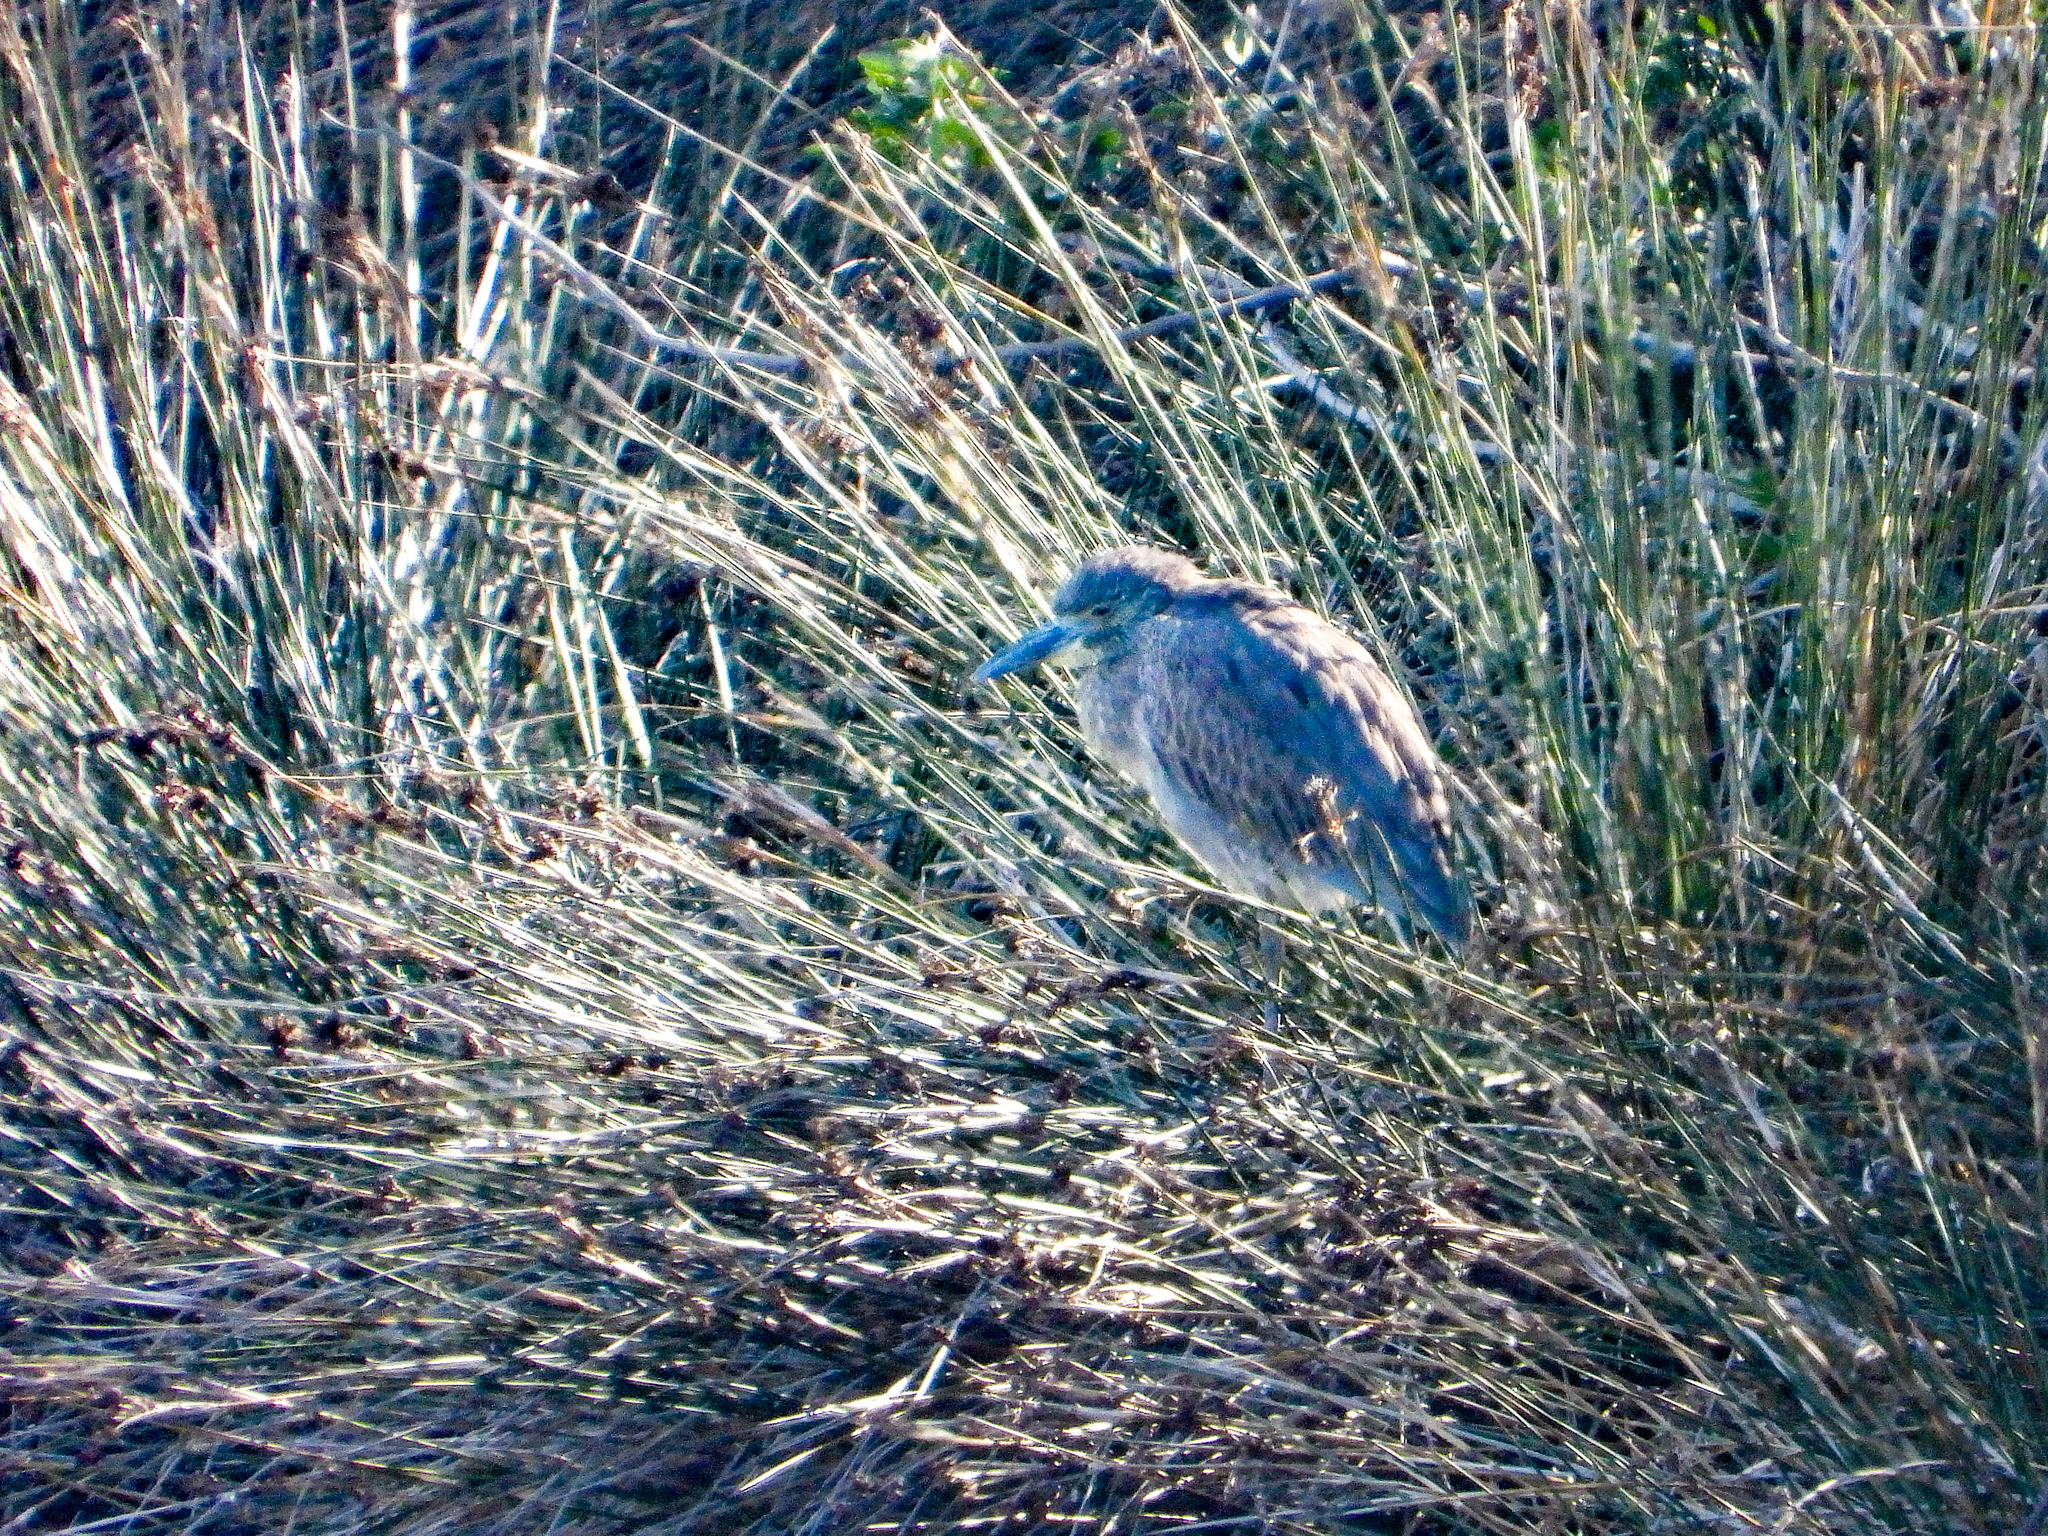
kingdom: Animalia
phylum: Chordata
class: Aves
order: Pelecaniformes
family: Ardeidae
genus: Nyctanassa
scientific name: Nyctanassa violacea
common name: Yellow-crowned night heron
